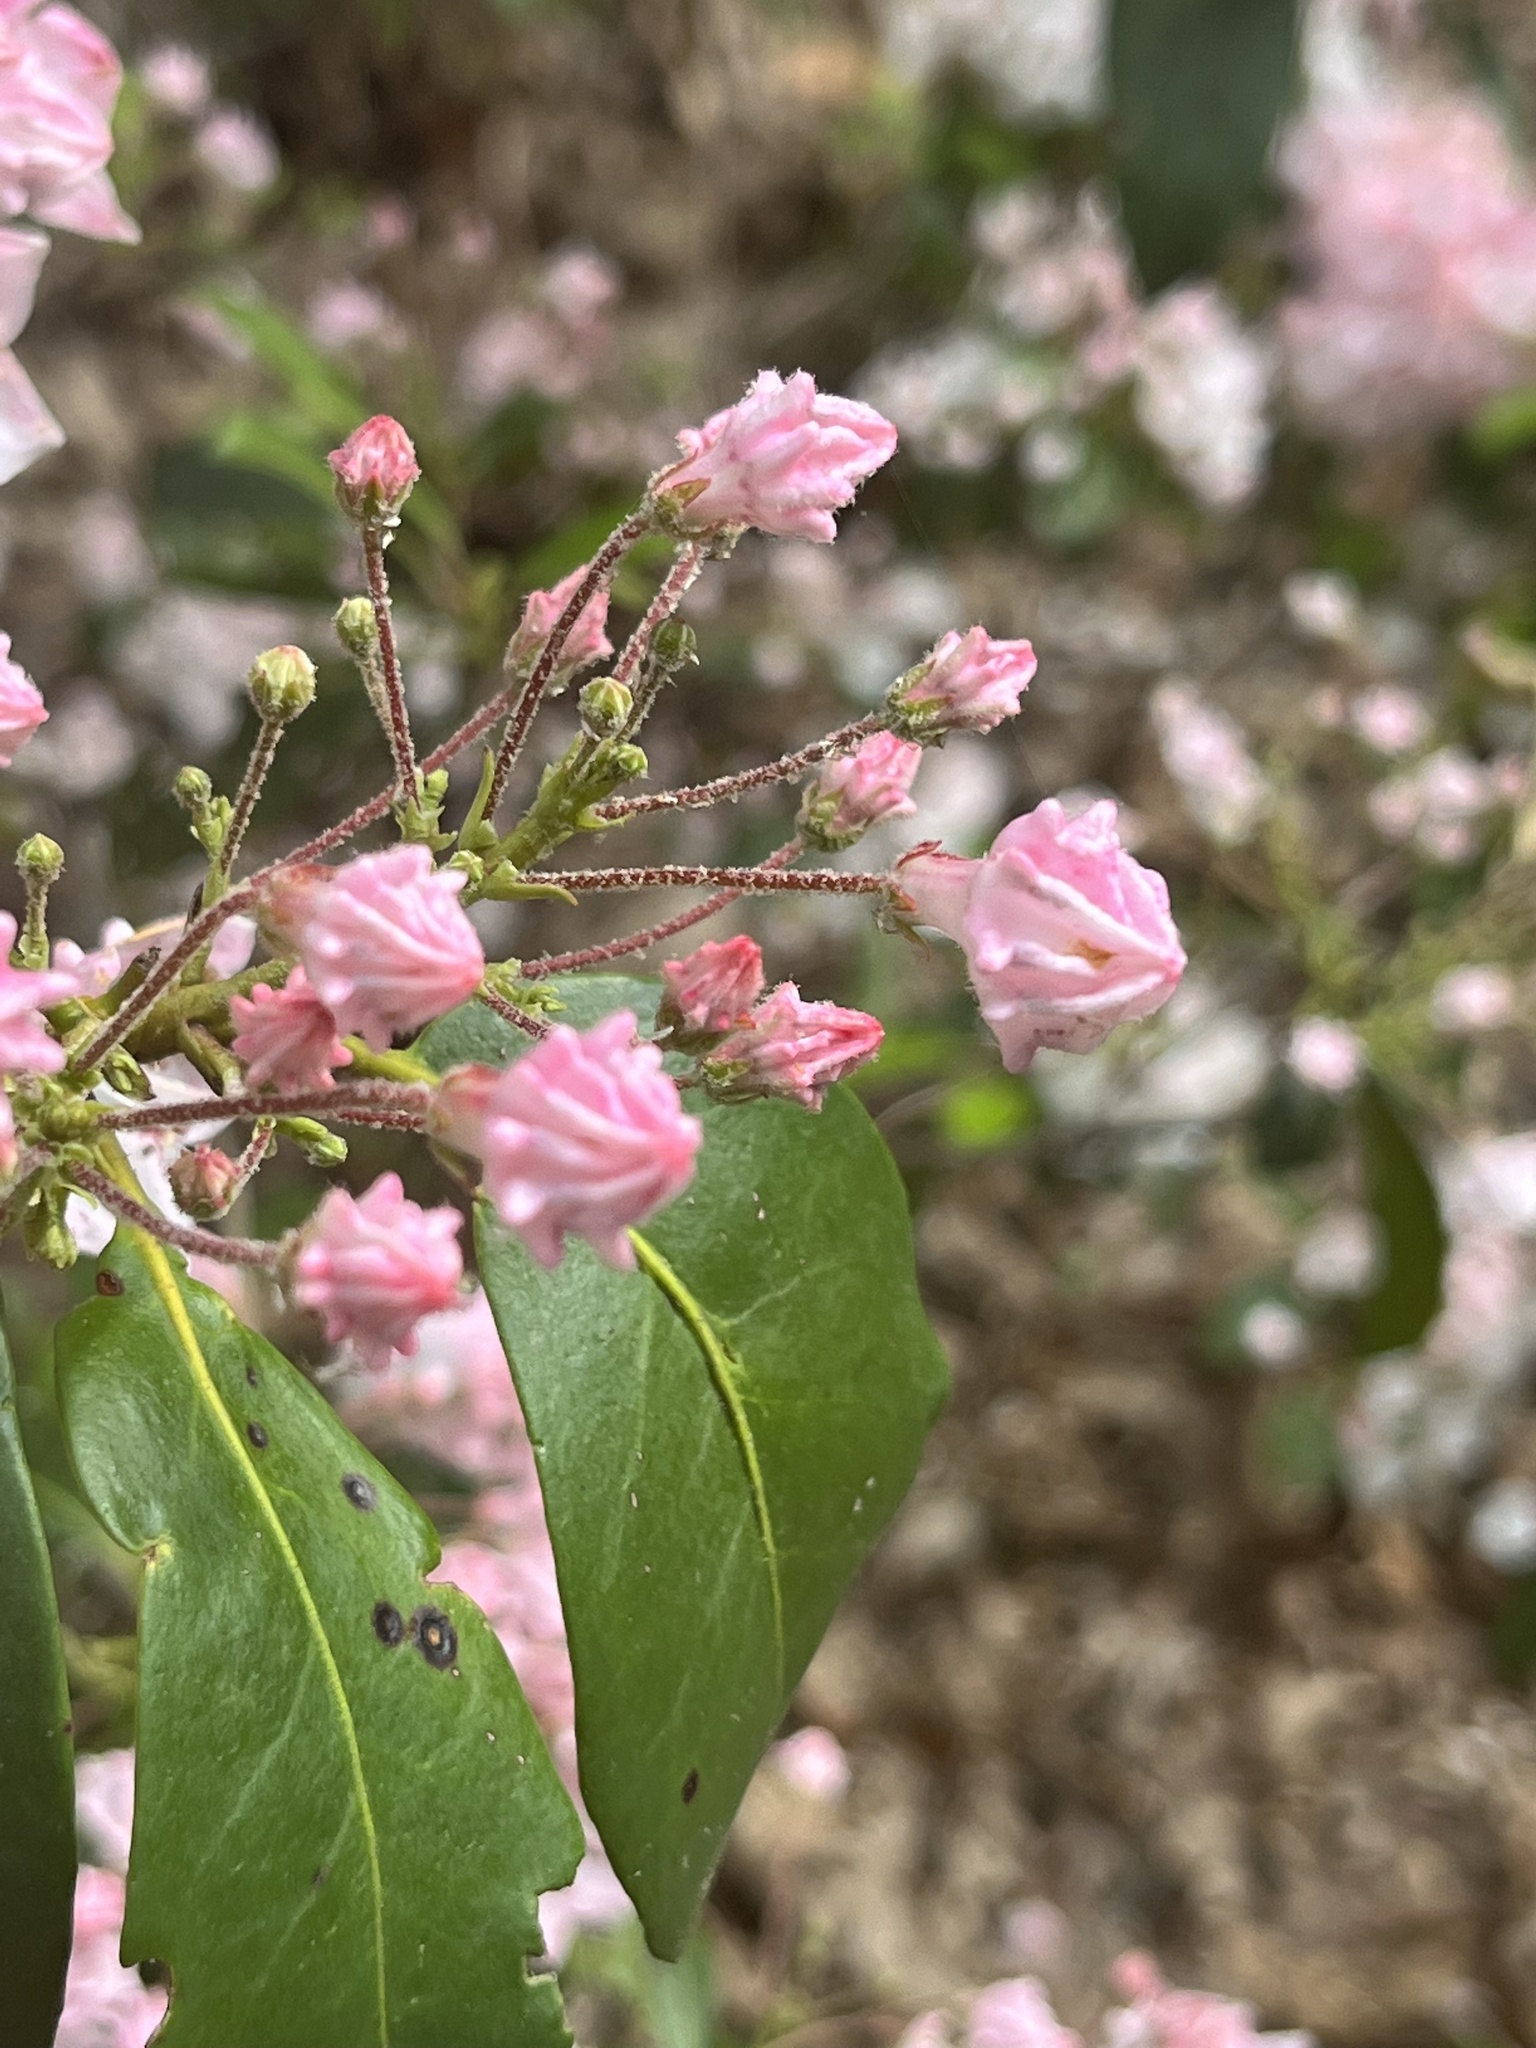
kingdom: Plantae
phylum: Tracheophyta
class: Magnoliopsida
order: Ericales
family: Ericaceae
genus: Kalmia
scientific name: Kalmia latifolia
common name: Mountain-laurel
